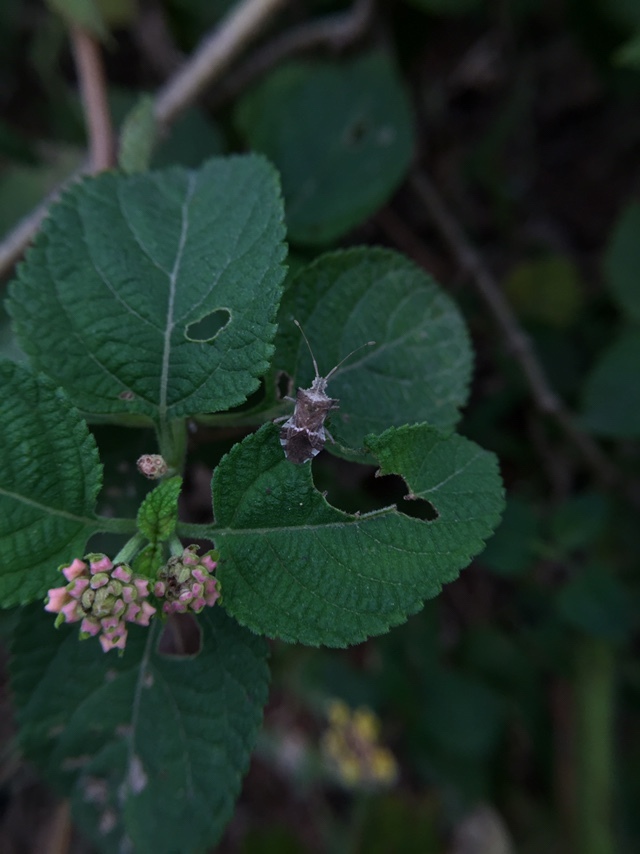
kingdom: Animalia
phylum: Arthropoda
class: Insecta
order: Hemiptera
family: Coreidae
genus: Cletomorpha
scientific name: Cletomorpha hastata
